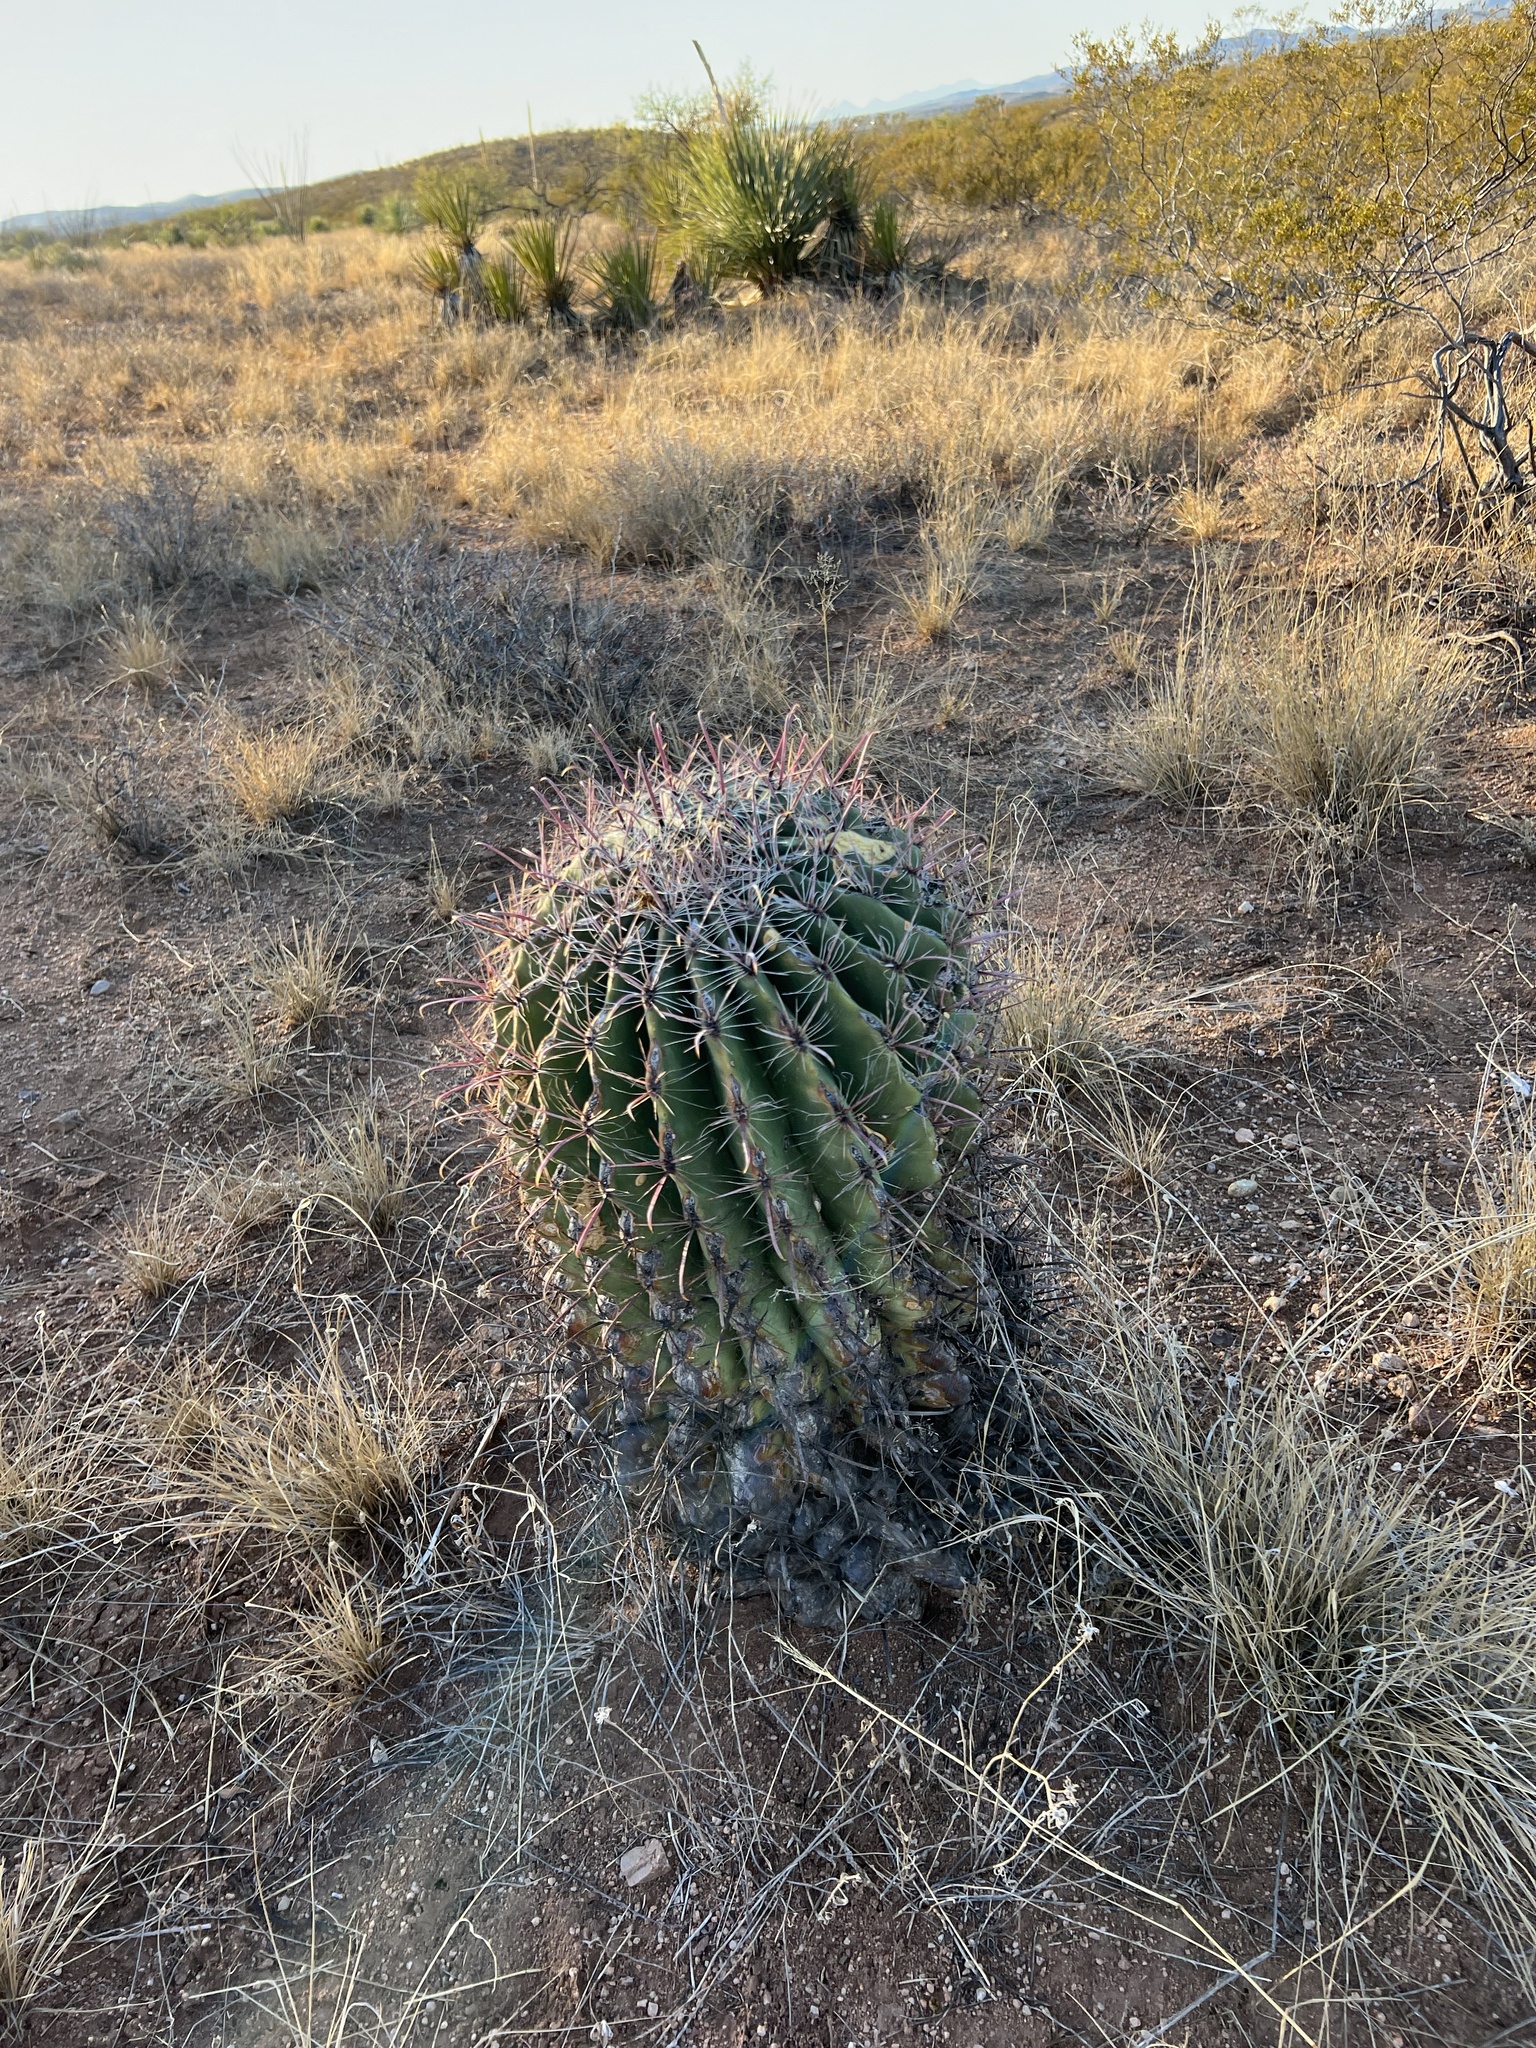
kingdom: Plantae
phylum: Tracheophyta
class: Magnoliopsida
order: Caryophyllales
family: Cactaceae
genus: Ferocactus
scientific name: Ferocactus wislizeni
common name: Candy barrel cactus
